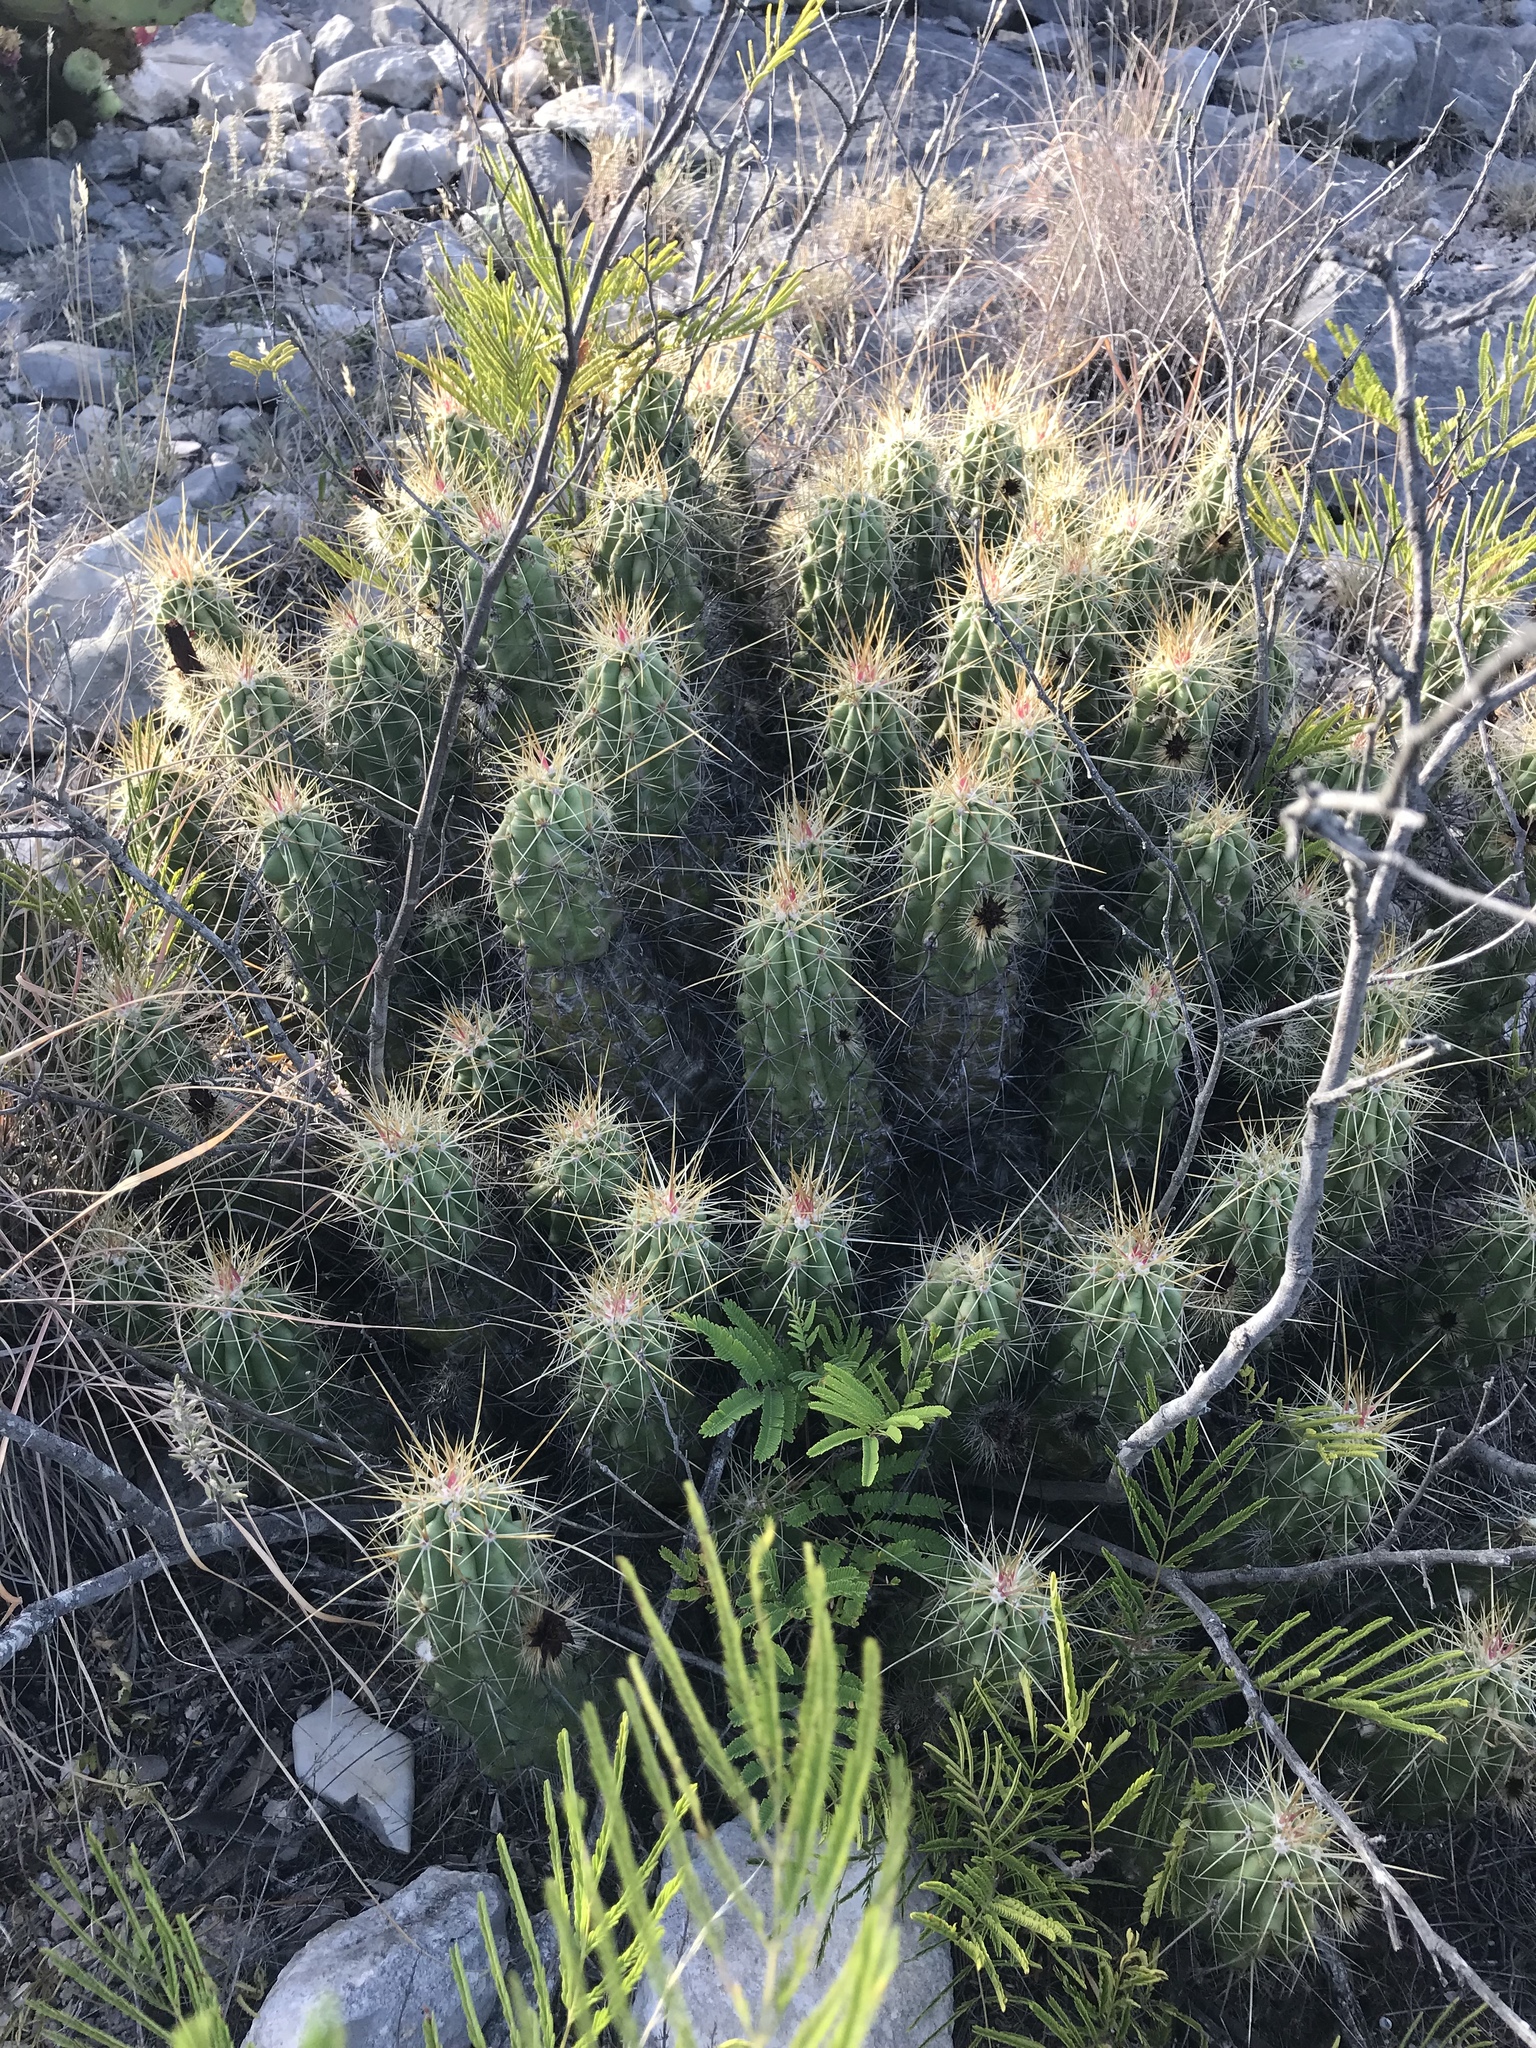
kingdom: Plantae
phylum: Tracheophyta
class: Magnoliopsida
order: Caryophyllales
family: Cactaceae
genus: Echinocereus
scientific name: Echinocereus enneacanthus
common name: Pitaya
